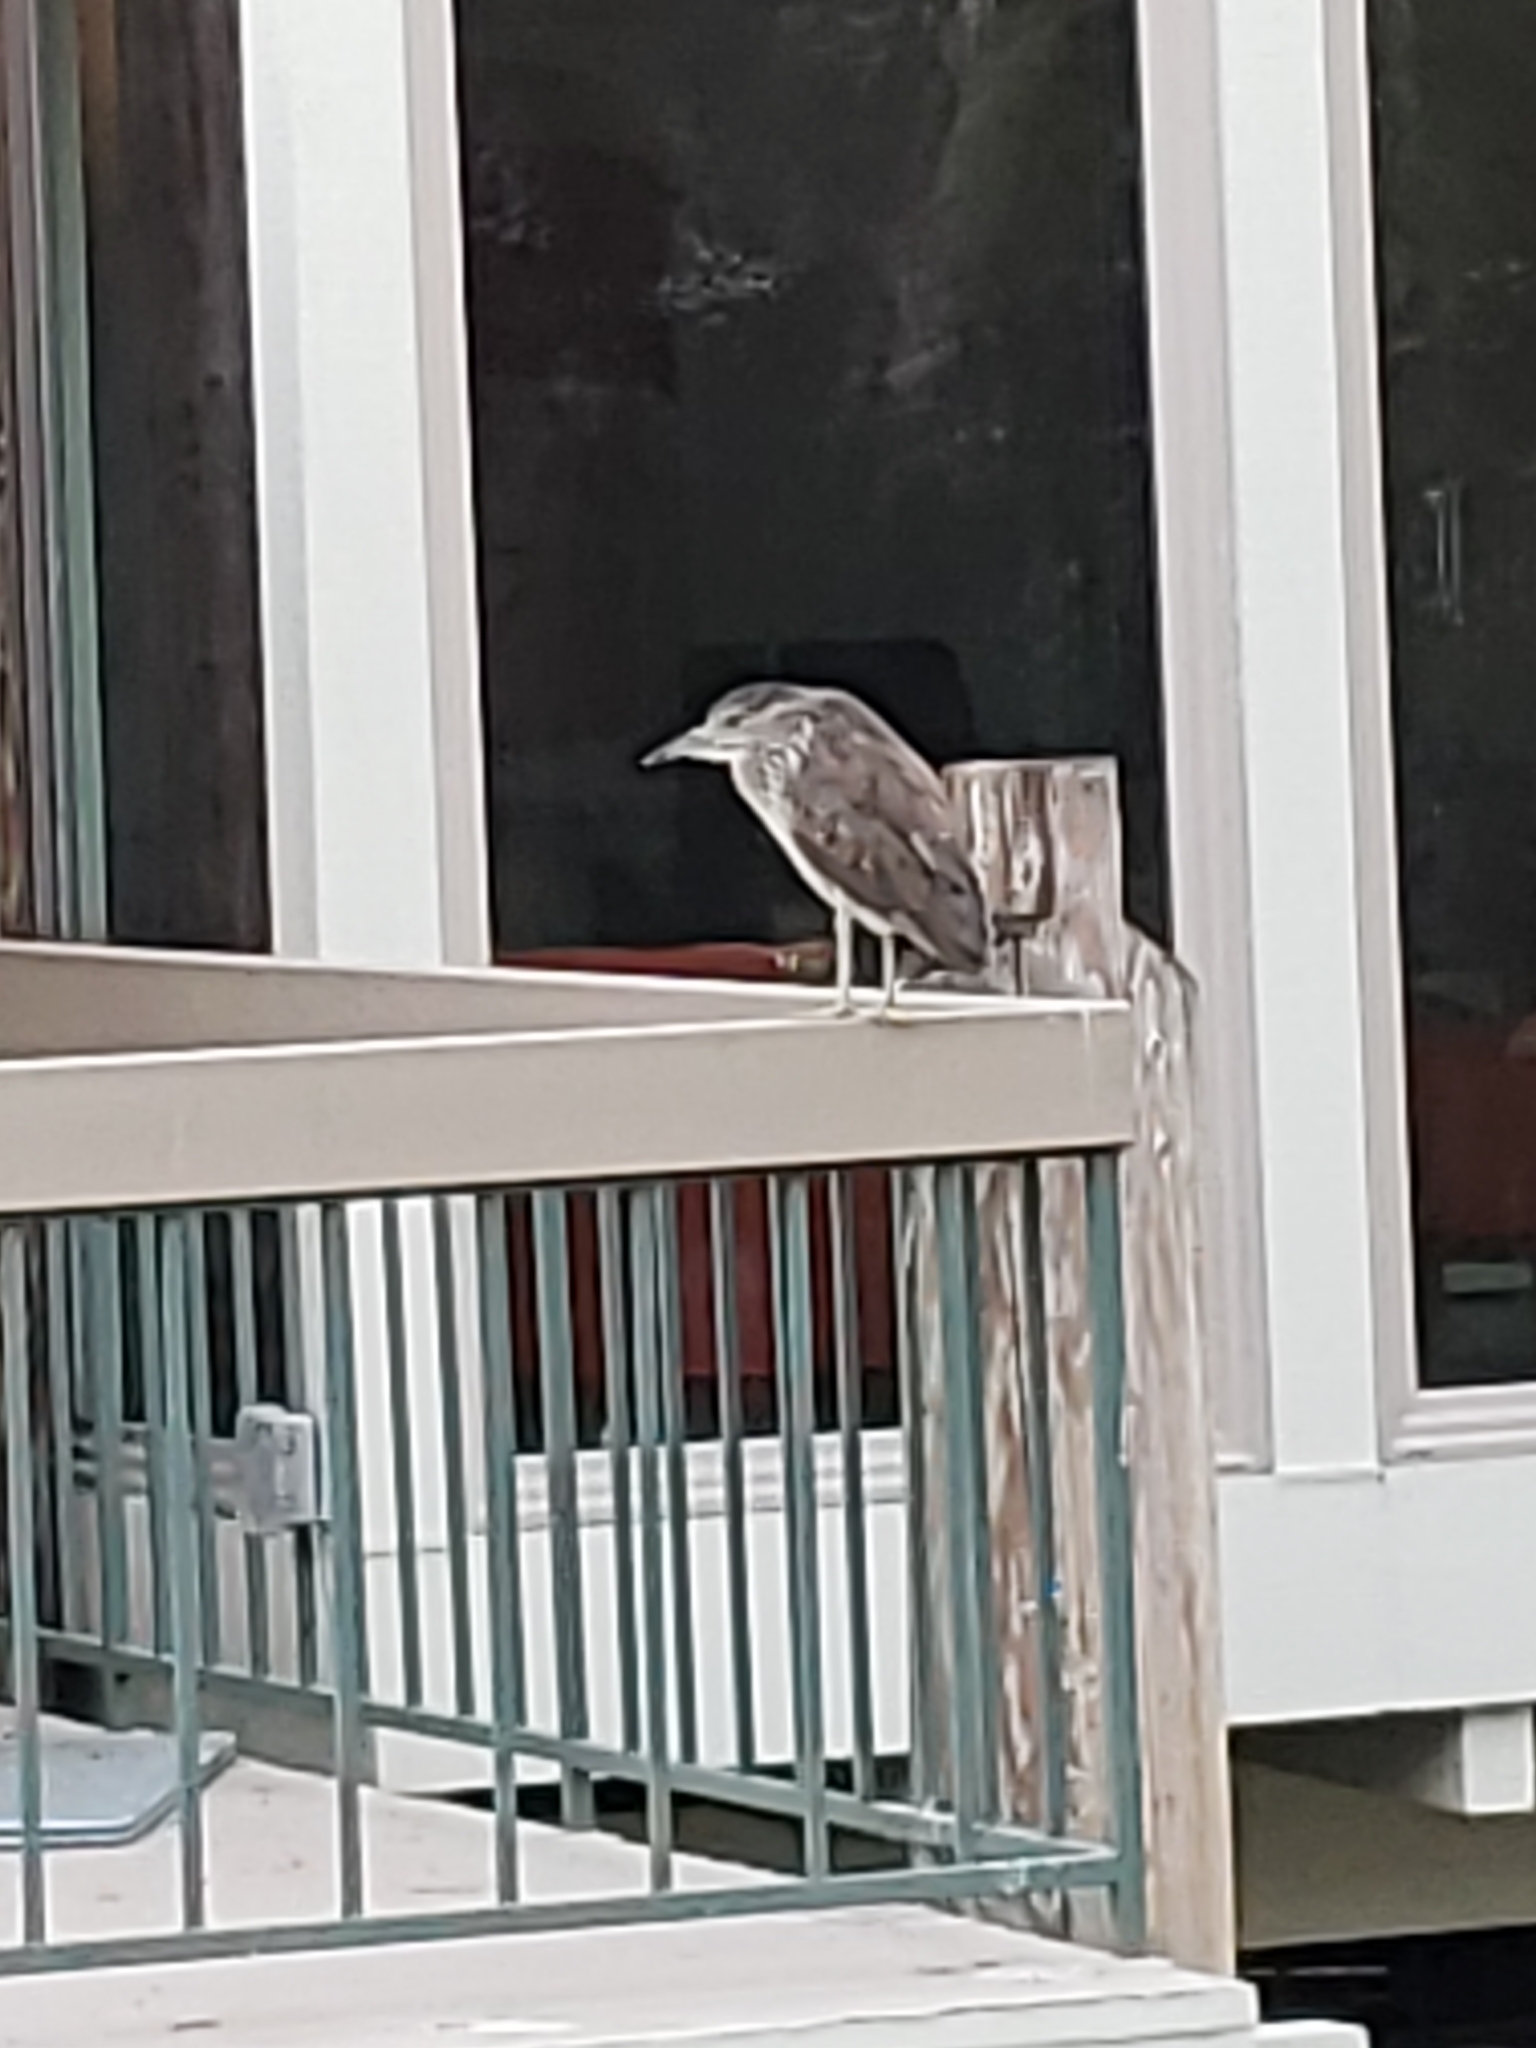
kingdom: Animalia
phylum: Chordata
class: Aves
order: Pelecaniformes
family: Ardeidae
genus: Nycticorax
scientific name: Nycticorax nycticorax
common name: Black-crowned night heron
